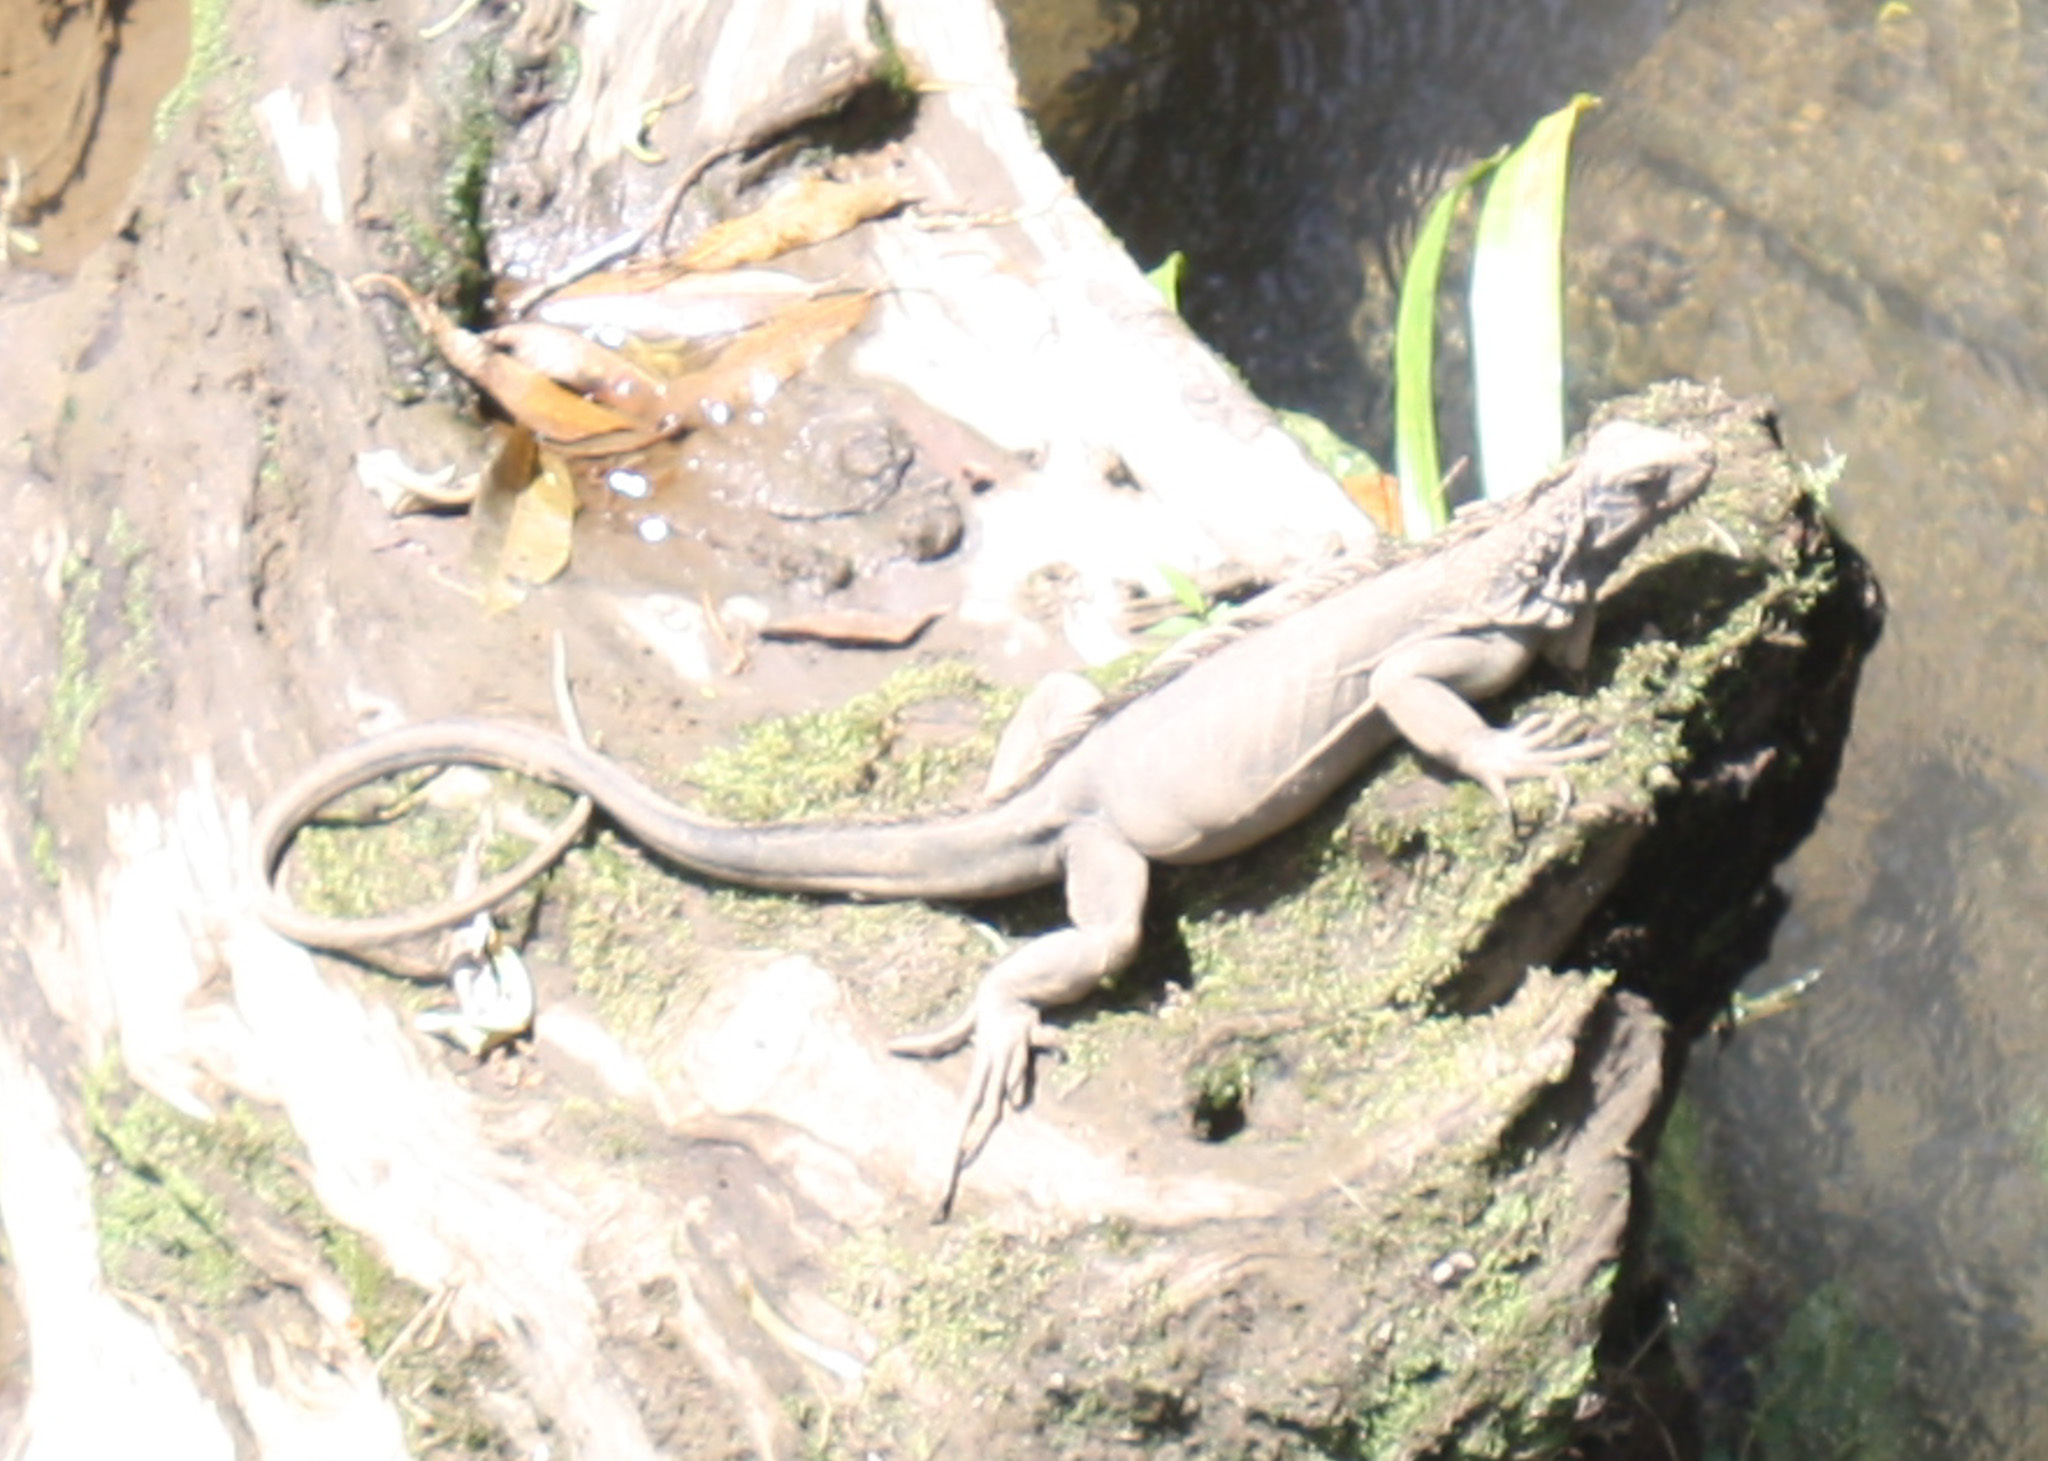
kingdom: Animalia
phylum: Chordata
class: Squamata
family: Iguanidae
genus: Iguana
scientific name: Iguana iguana
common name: Green iguana
